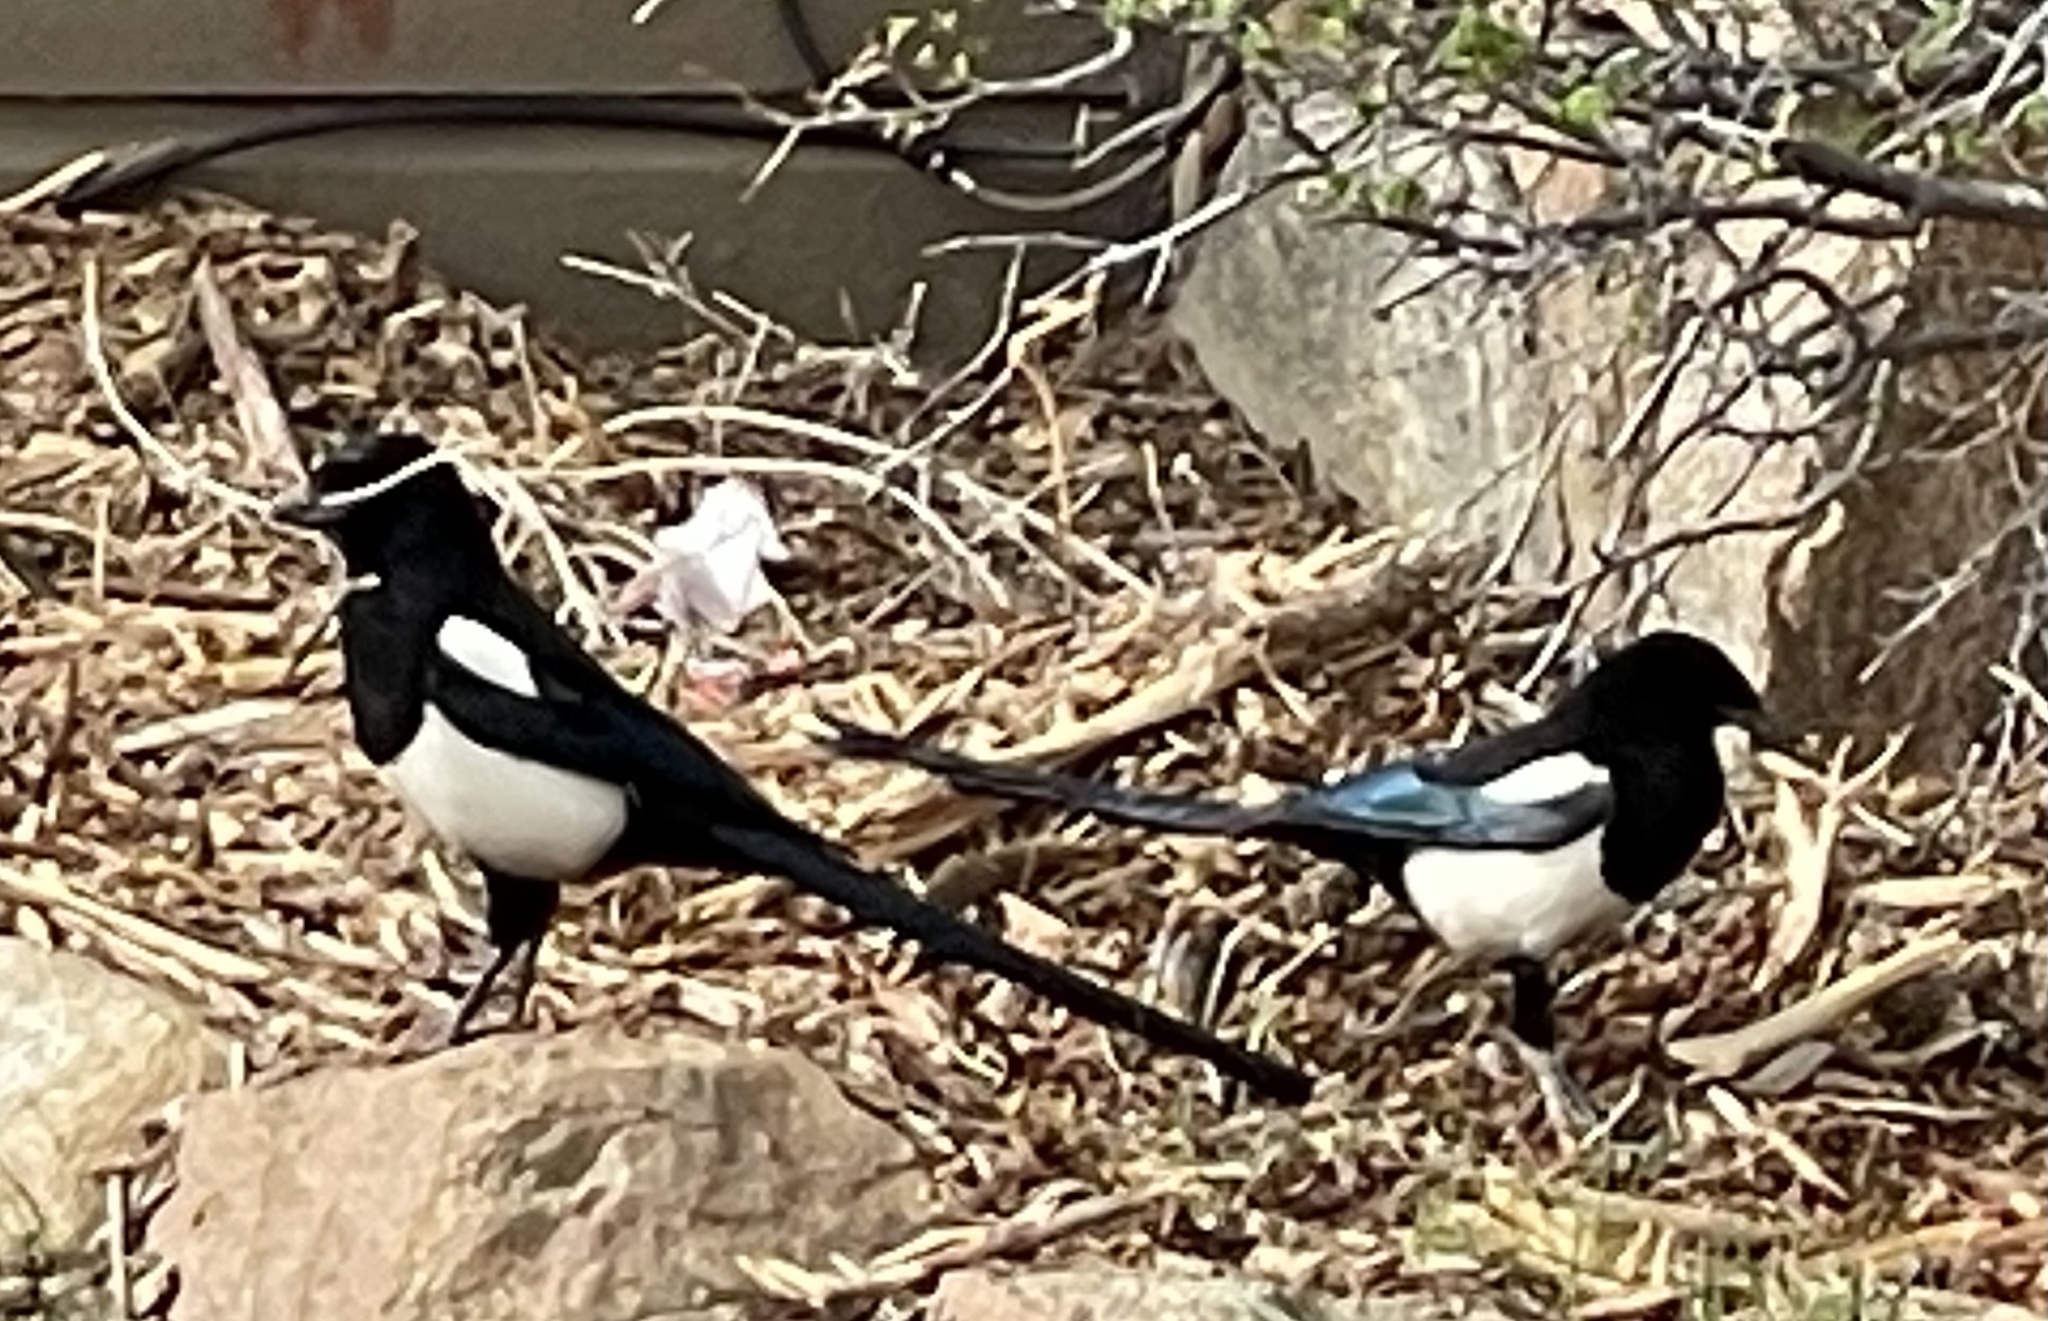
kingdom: Animalia
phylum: Chordata
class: Aves
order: Passeriformes
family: Corvidae
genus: Pica
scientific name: Pica hudsonia
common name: Black-billed magpie
